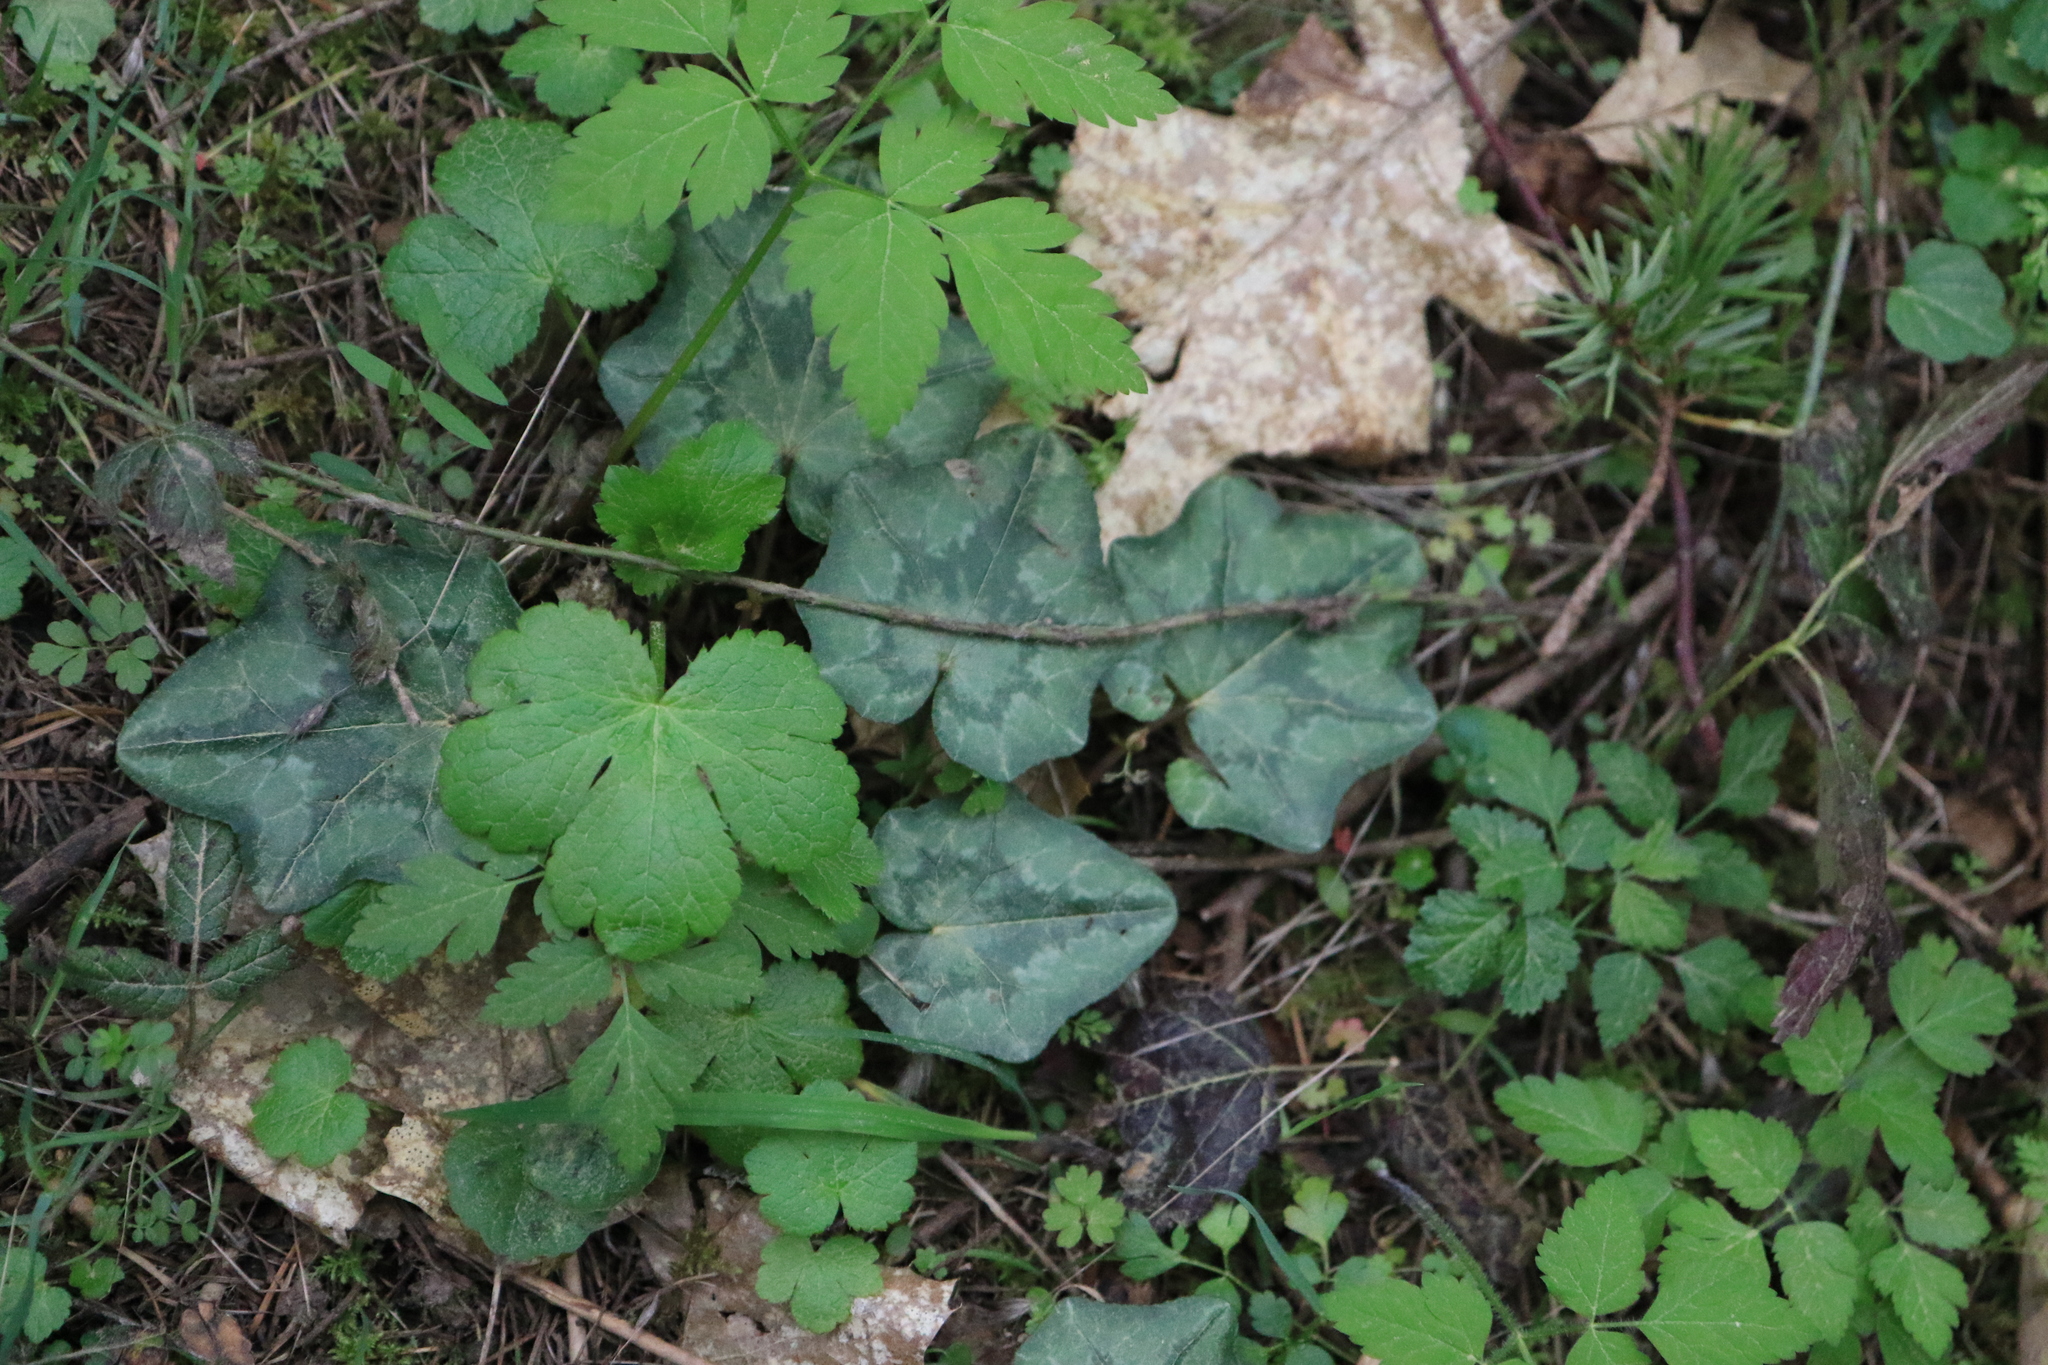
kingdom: Plantae
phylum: Tracheophyta
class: Magnoliopsida
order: Ericales
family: Primulaceae
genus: Cyclamen
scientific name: Cyclamen hederifolium
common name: Sowbread
